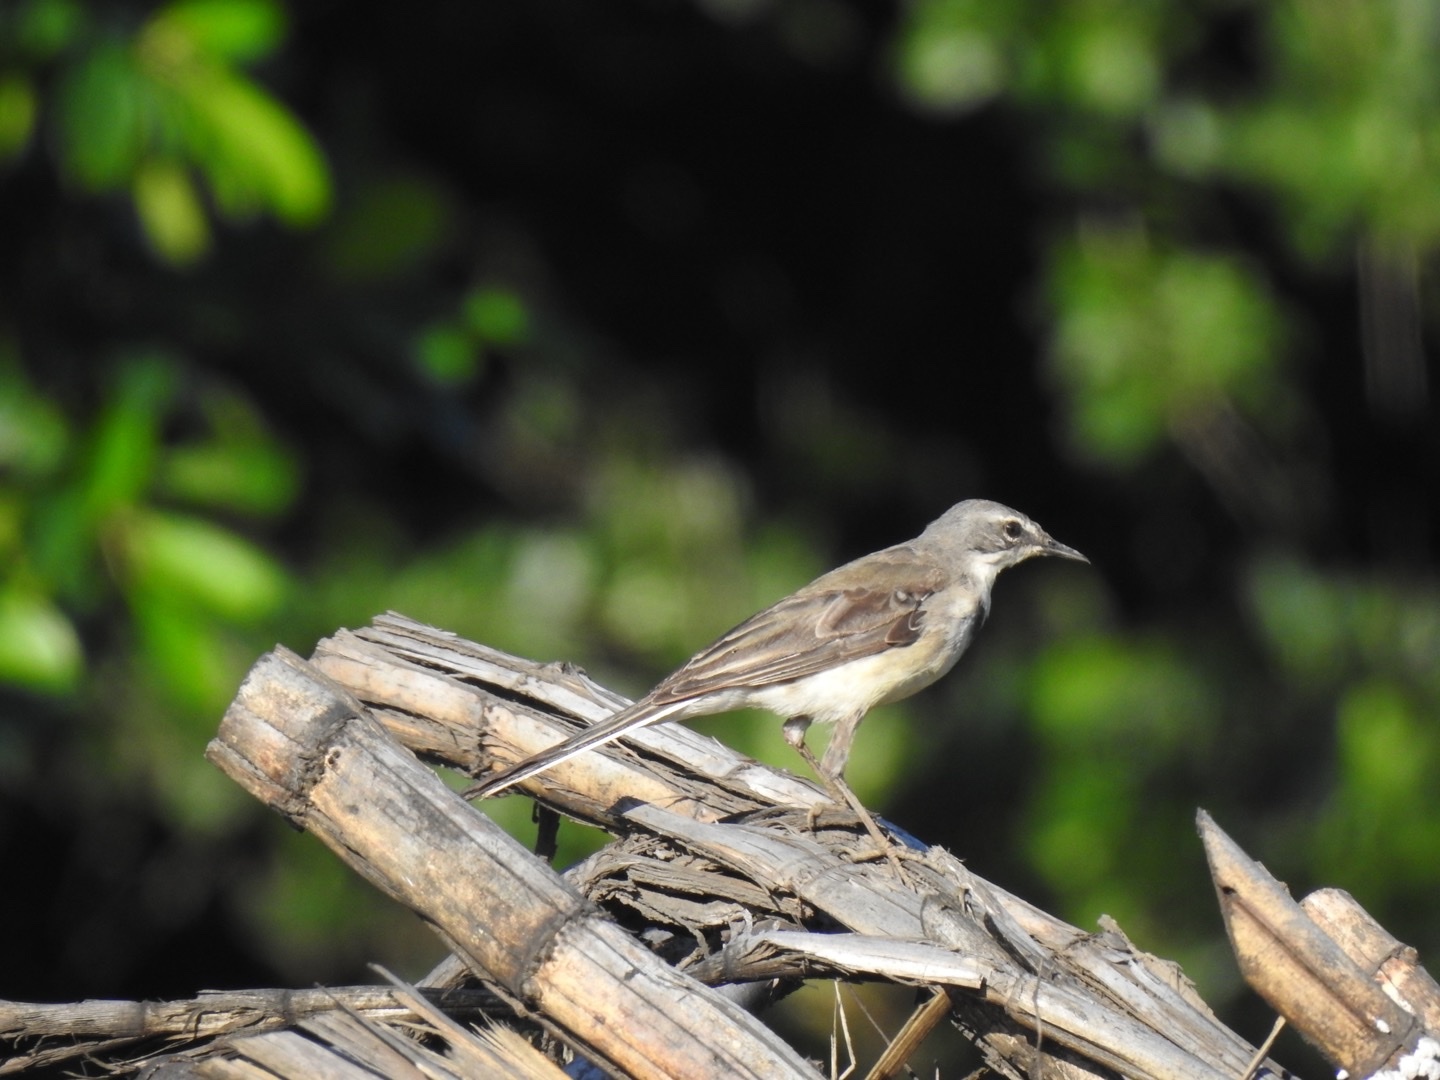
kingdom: Animalia
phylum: Chordata
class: Aves
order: Passeriformes
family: Motacillidae
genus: Motacilla
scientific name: Motacilla capensis
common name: Cape wagtail
